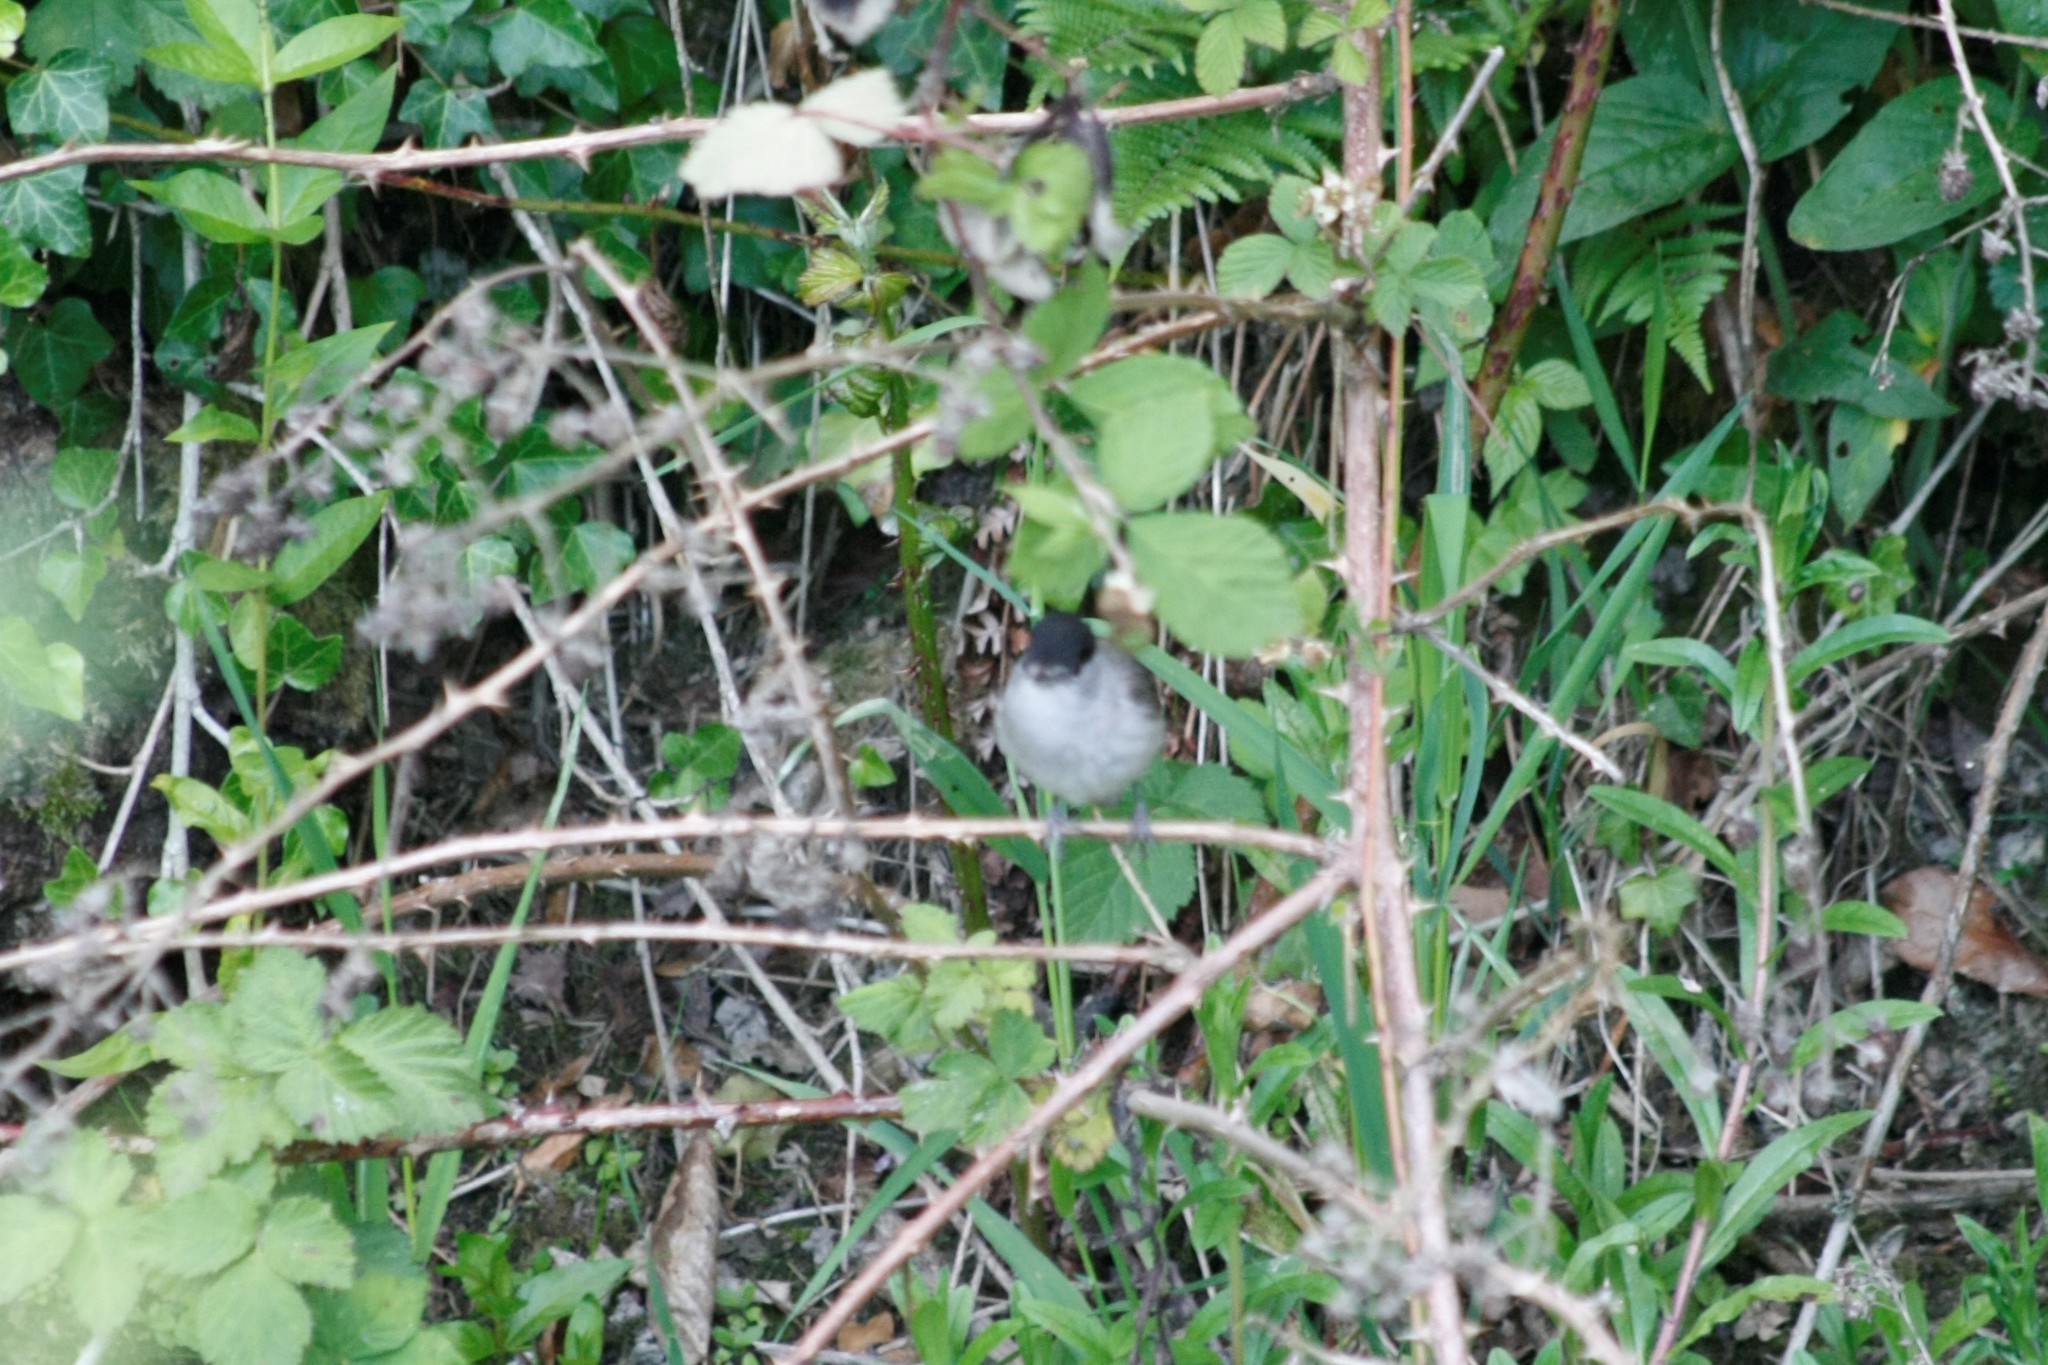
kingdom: Animalia
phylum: Chordata
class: Aves
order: Passeriformes
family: Sylviidae
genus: Sylvia
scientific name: Sylvia atricapilla
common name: Eurasian blackcap
